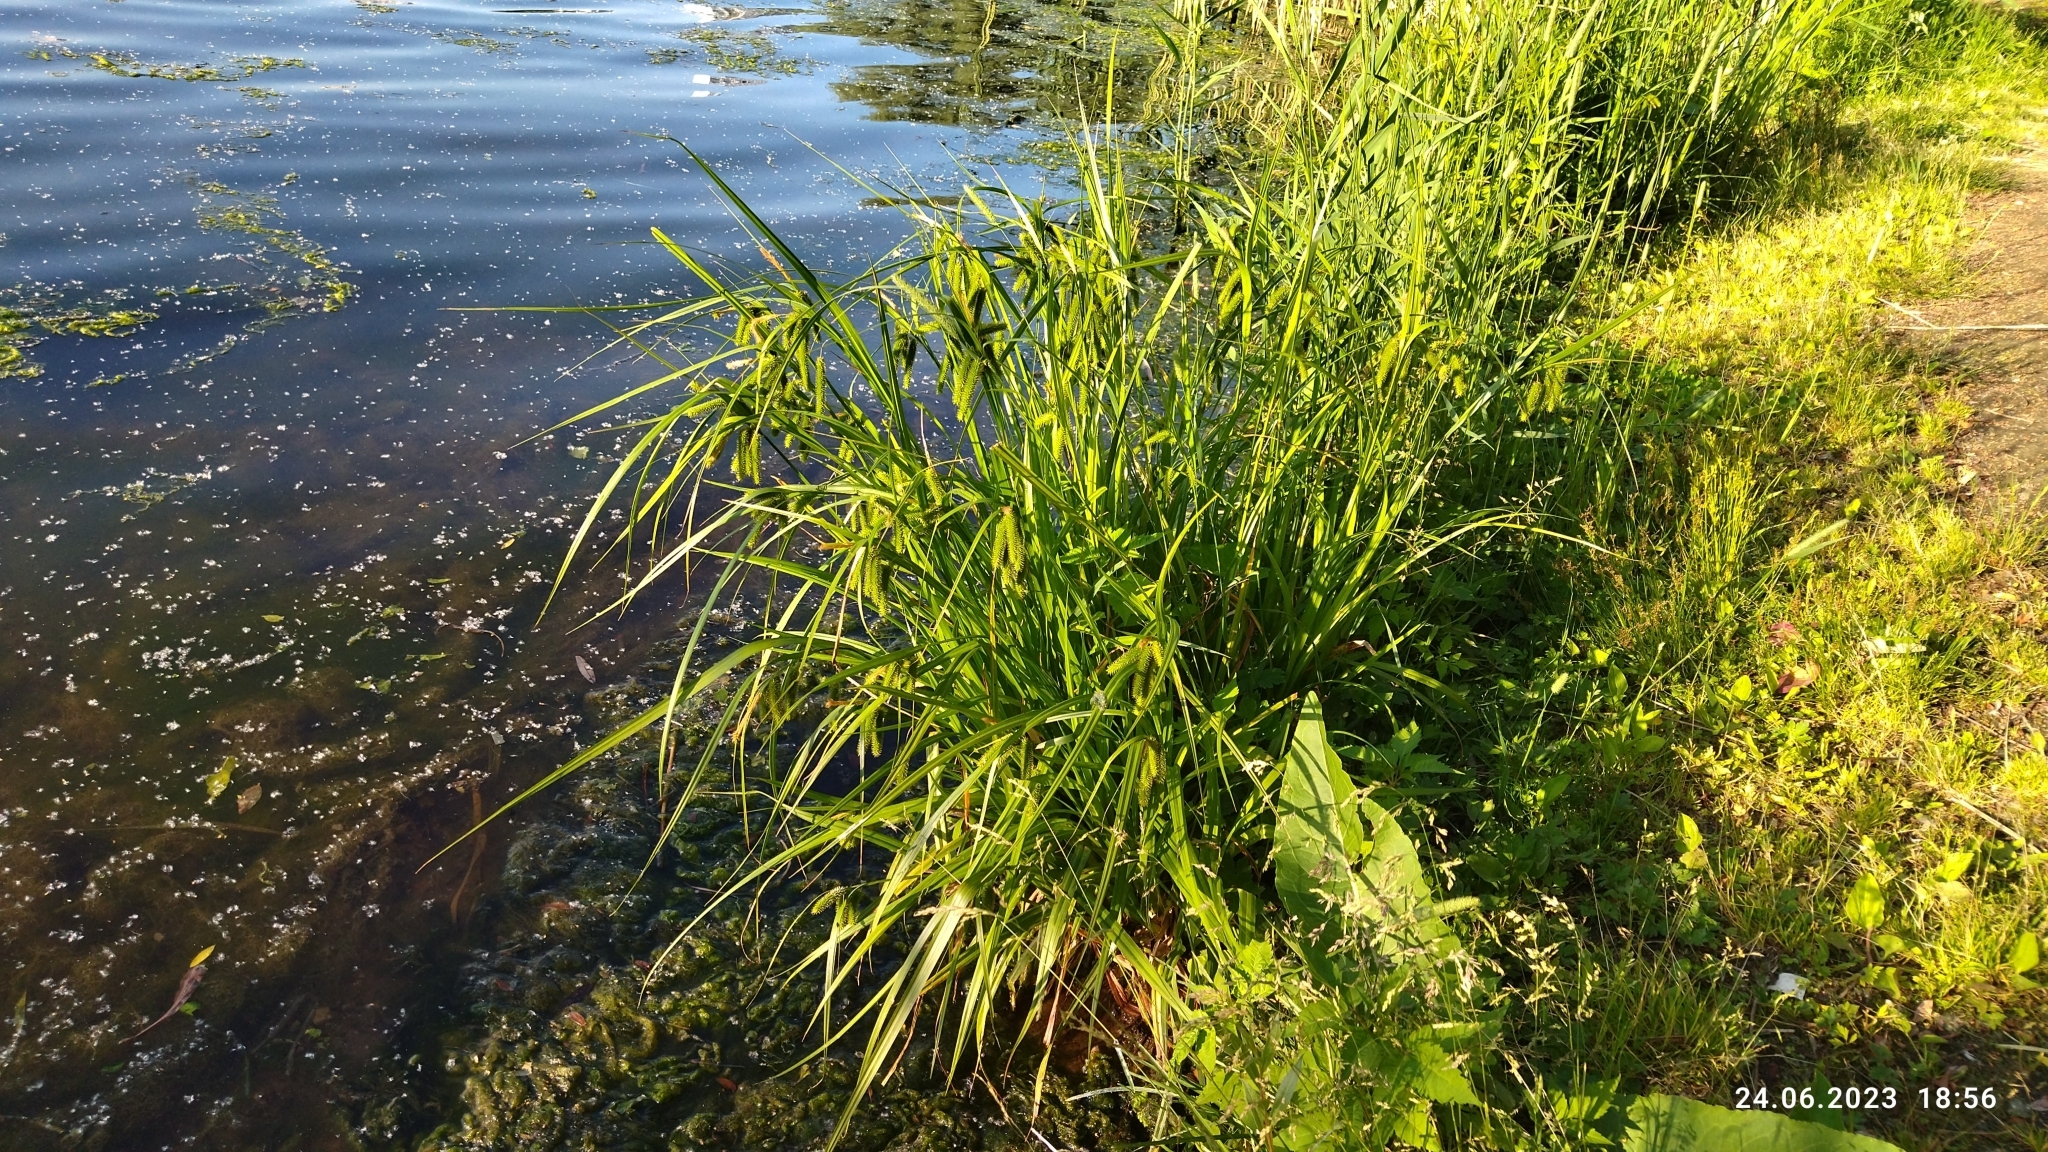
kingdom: Plantae
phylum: Tracheophyta
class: Liliopsida
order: Poales
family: Cyperaceae
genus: Carex
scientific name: Carex pseudocyperus
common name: Cyperus sedge
